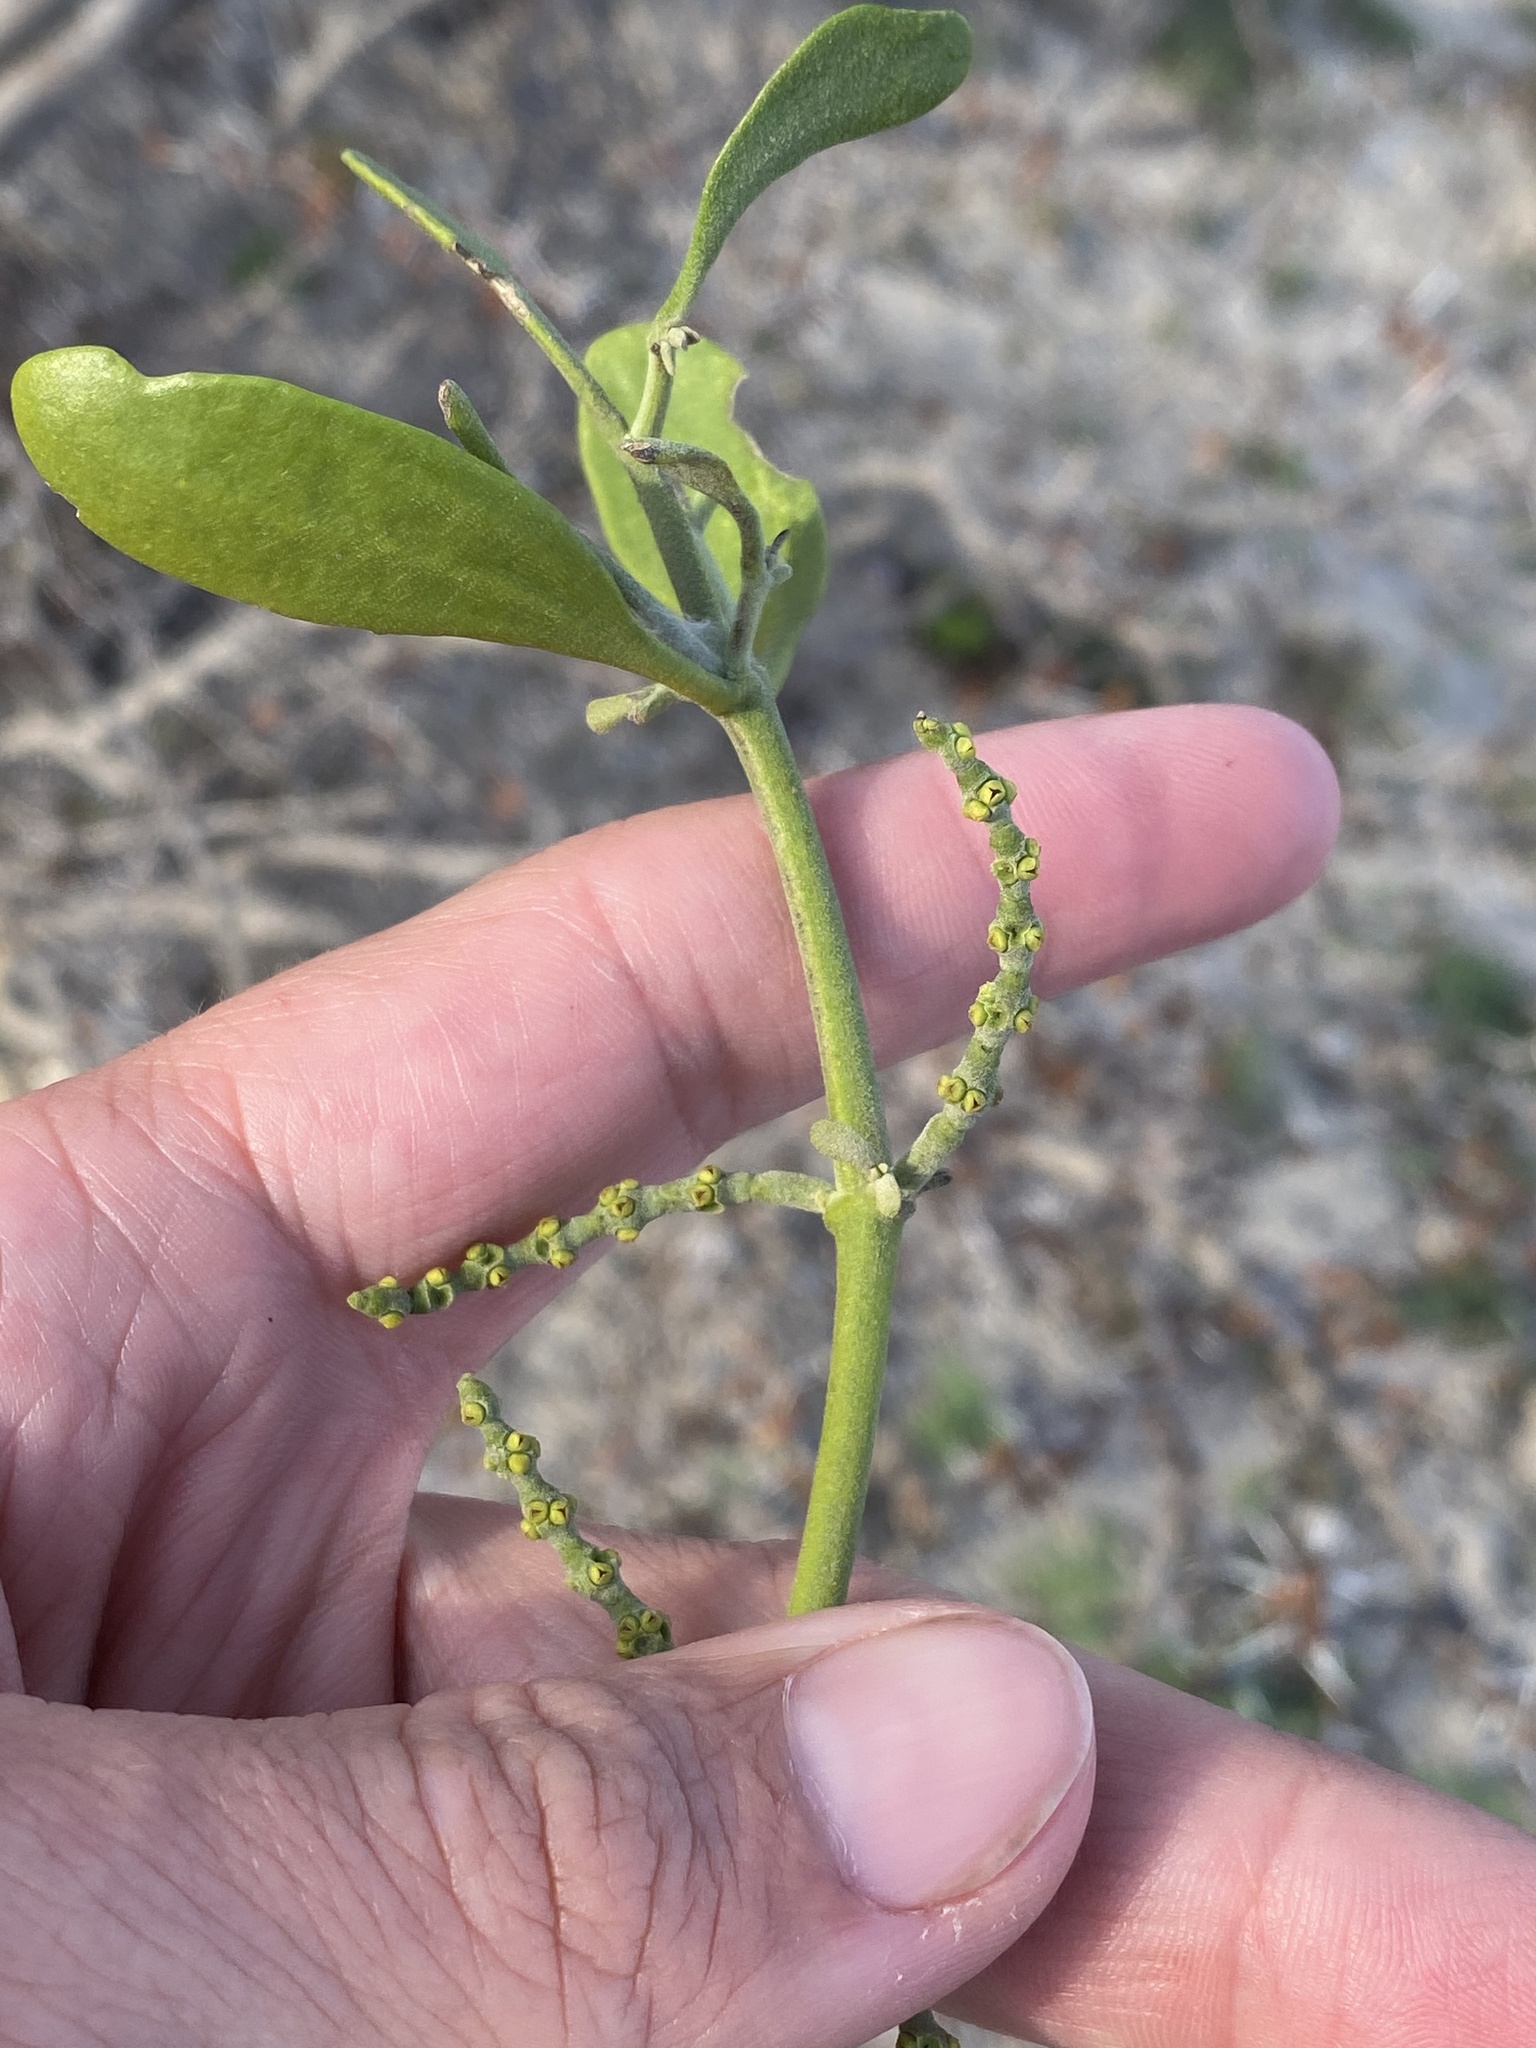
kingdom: Plantae
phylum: Tracheophyta
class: Magnoliopsida
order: Santalales
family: Viscaceae
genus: Phoradendron
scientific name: Phoradendron leucarpum
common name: Pacific mistletoe
